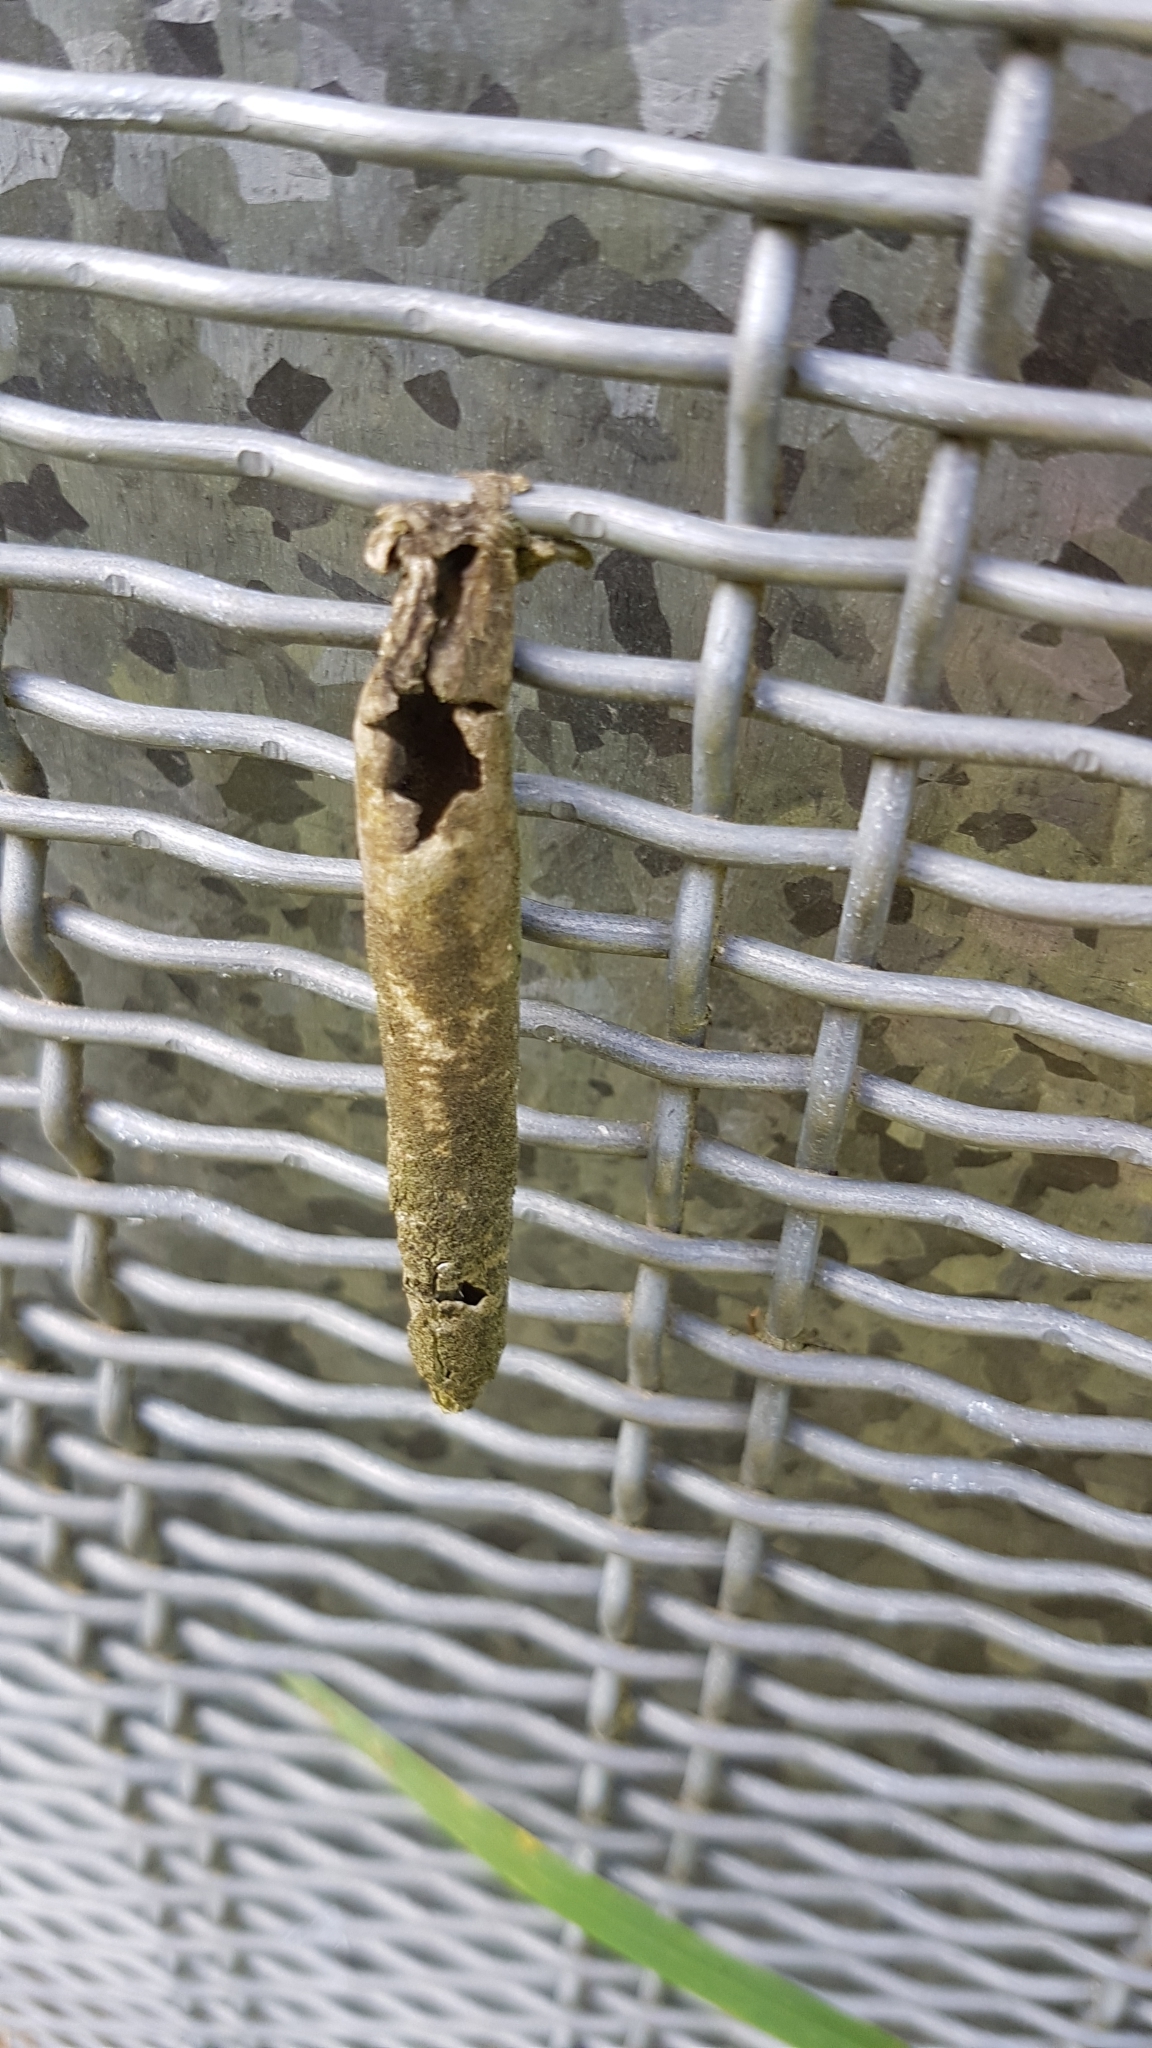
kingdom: Animalia
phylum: Arthropoda
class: Insecta
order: Lepidoptera
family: Psychidae
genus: Liothula
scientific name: Liothula omnivora
